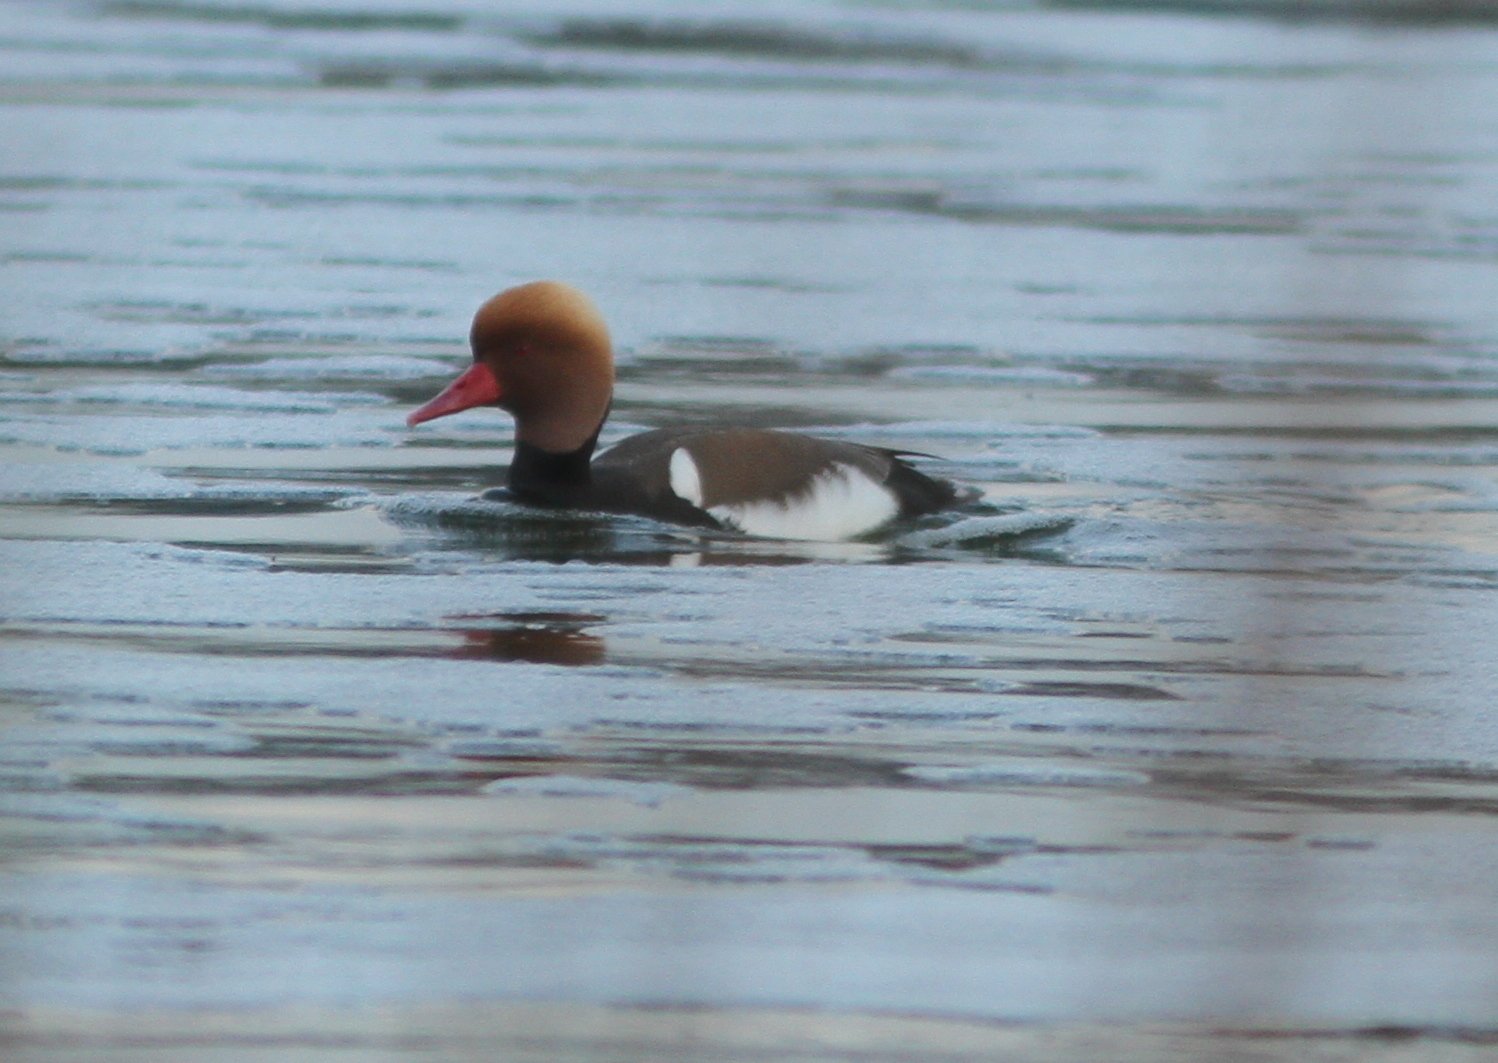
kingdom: Animalia
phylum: Chordata
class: Aves
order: Anseriformes
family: Anatidae
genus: Netta
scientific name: Netta rufina
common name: Red-crested pochard
